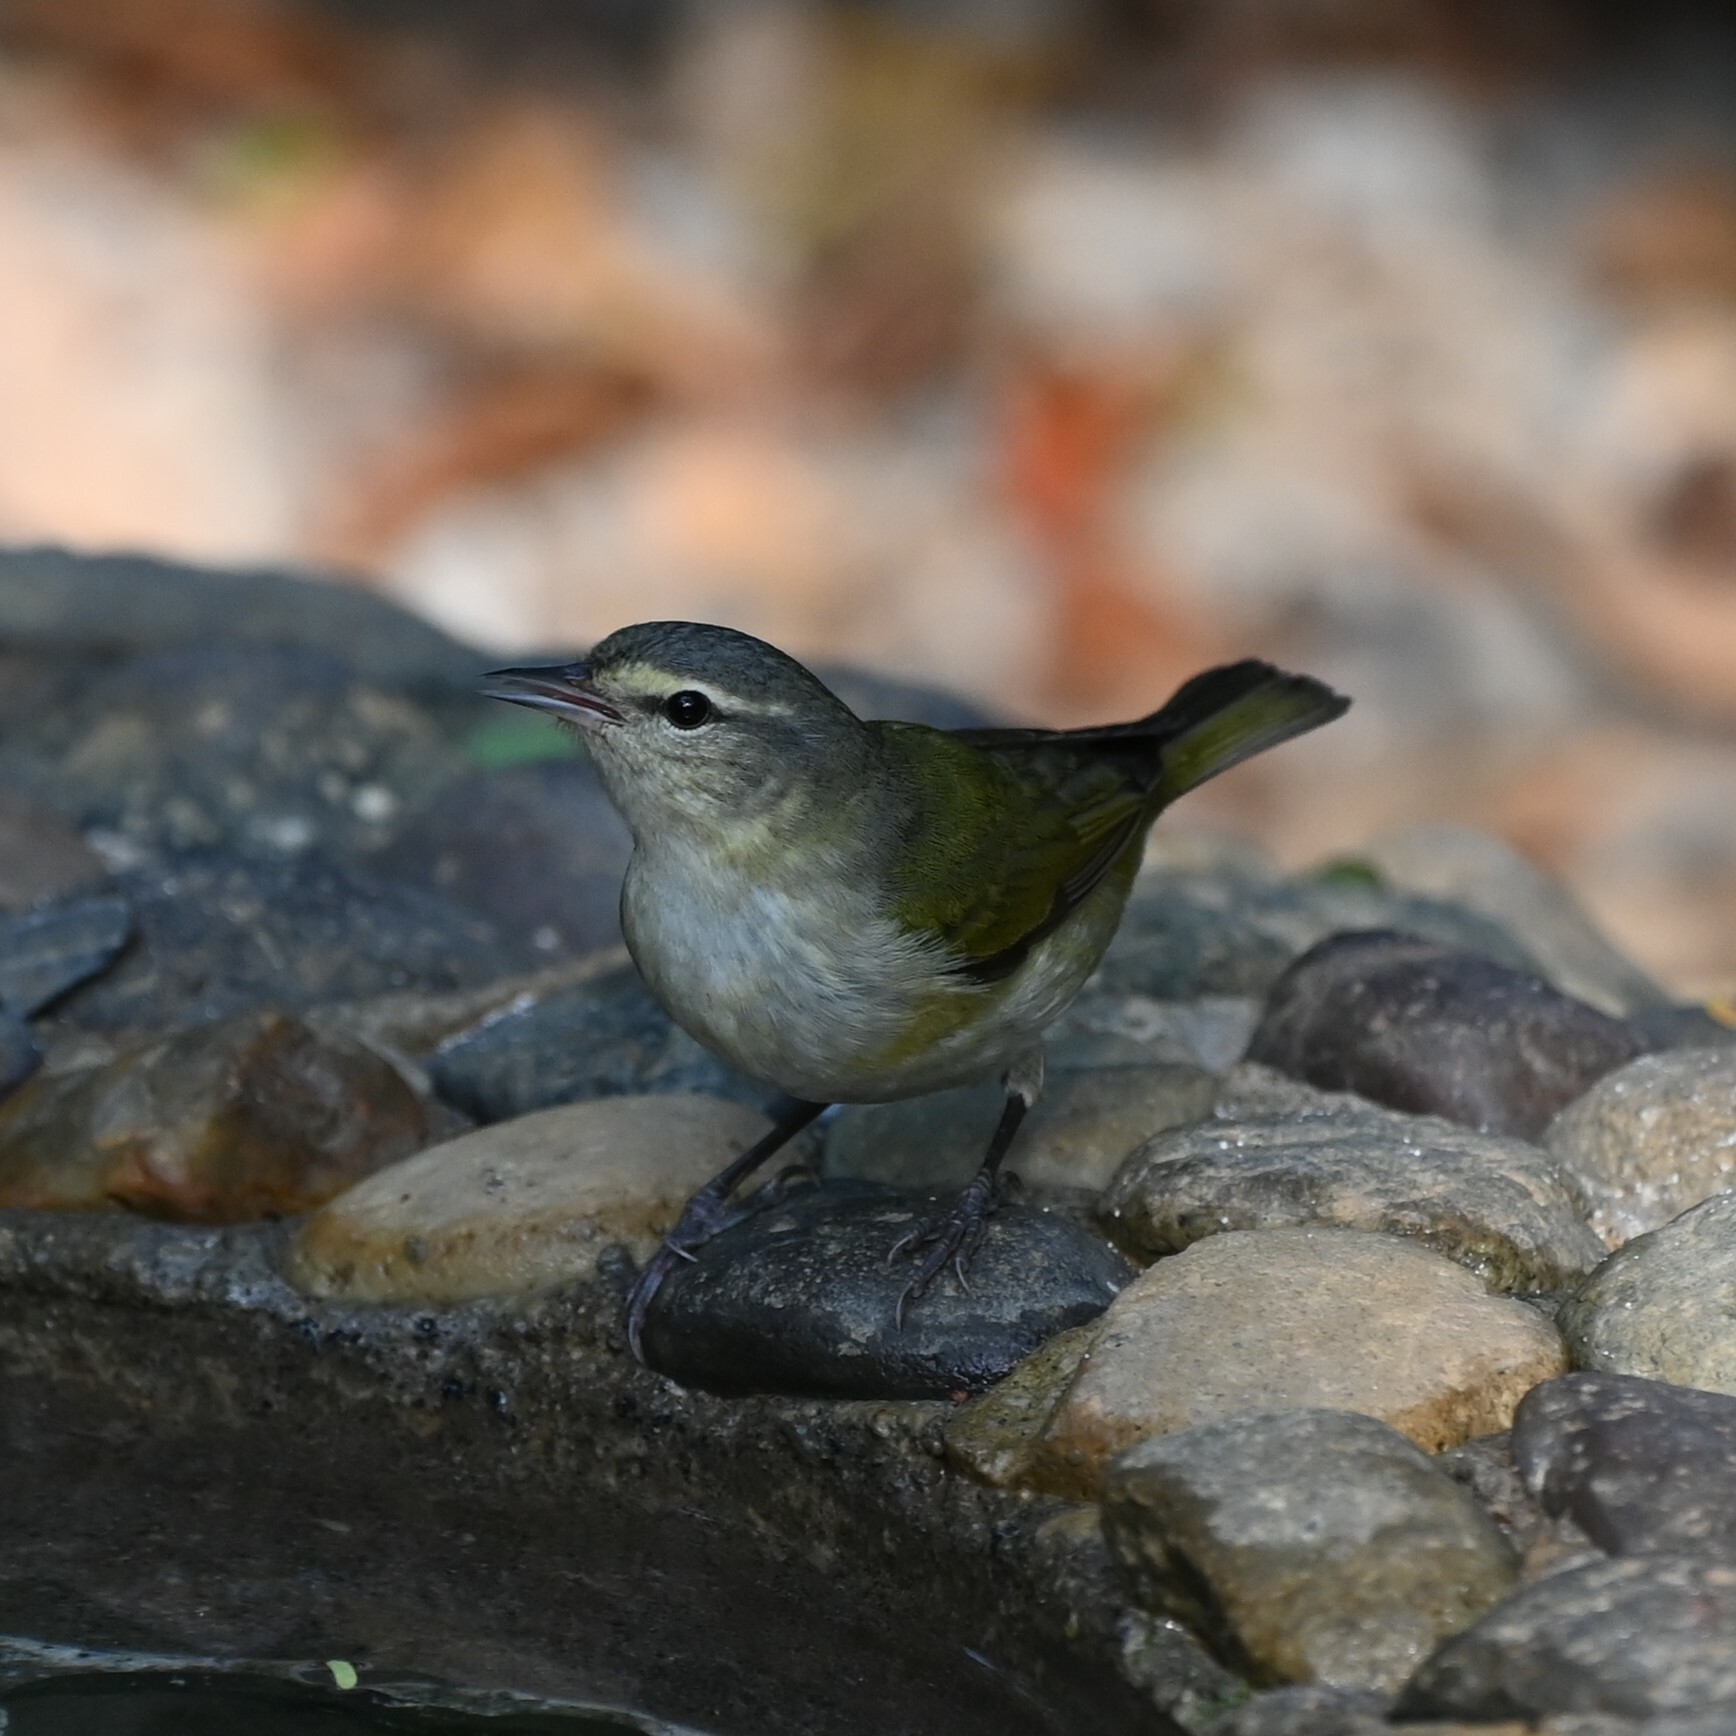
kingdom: Animalia
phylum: Chordata
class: Aves
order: Passeriformes
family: Parulidae
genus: Leiothlypis
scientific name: Leiothlypis peregrina
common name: Tennessee warbler
